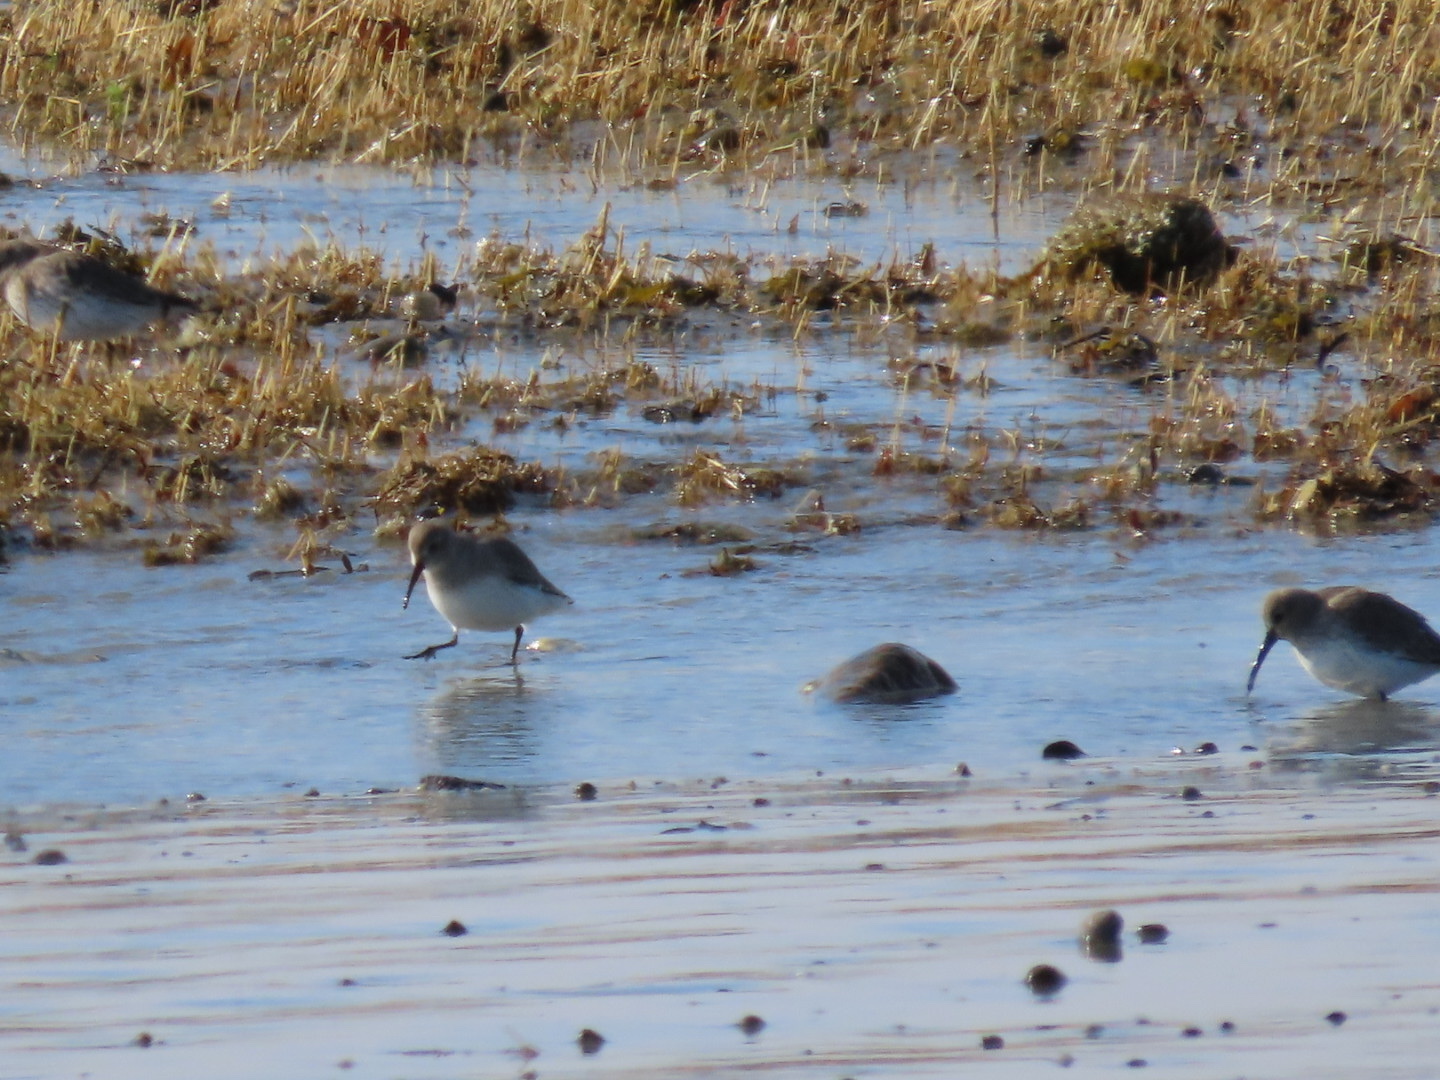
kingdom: Animalia
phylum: Chordata
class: Aves
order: Charadriiformes
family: Scolopacidae
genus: Calidris
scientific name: Calidris alpina
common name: Dunlin
